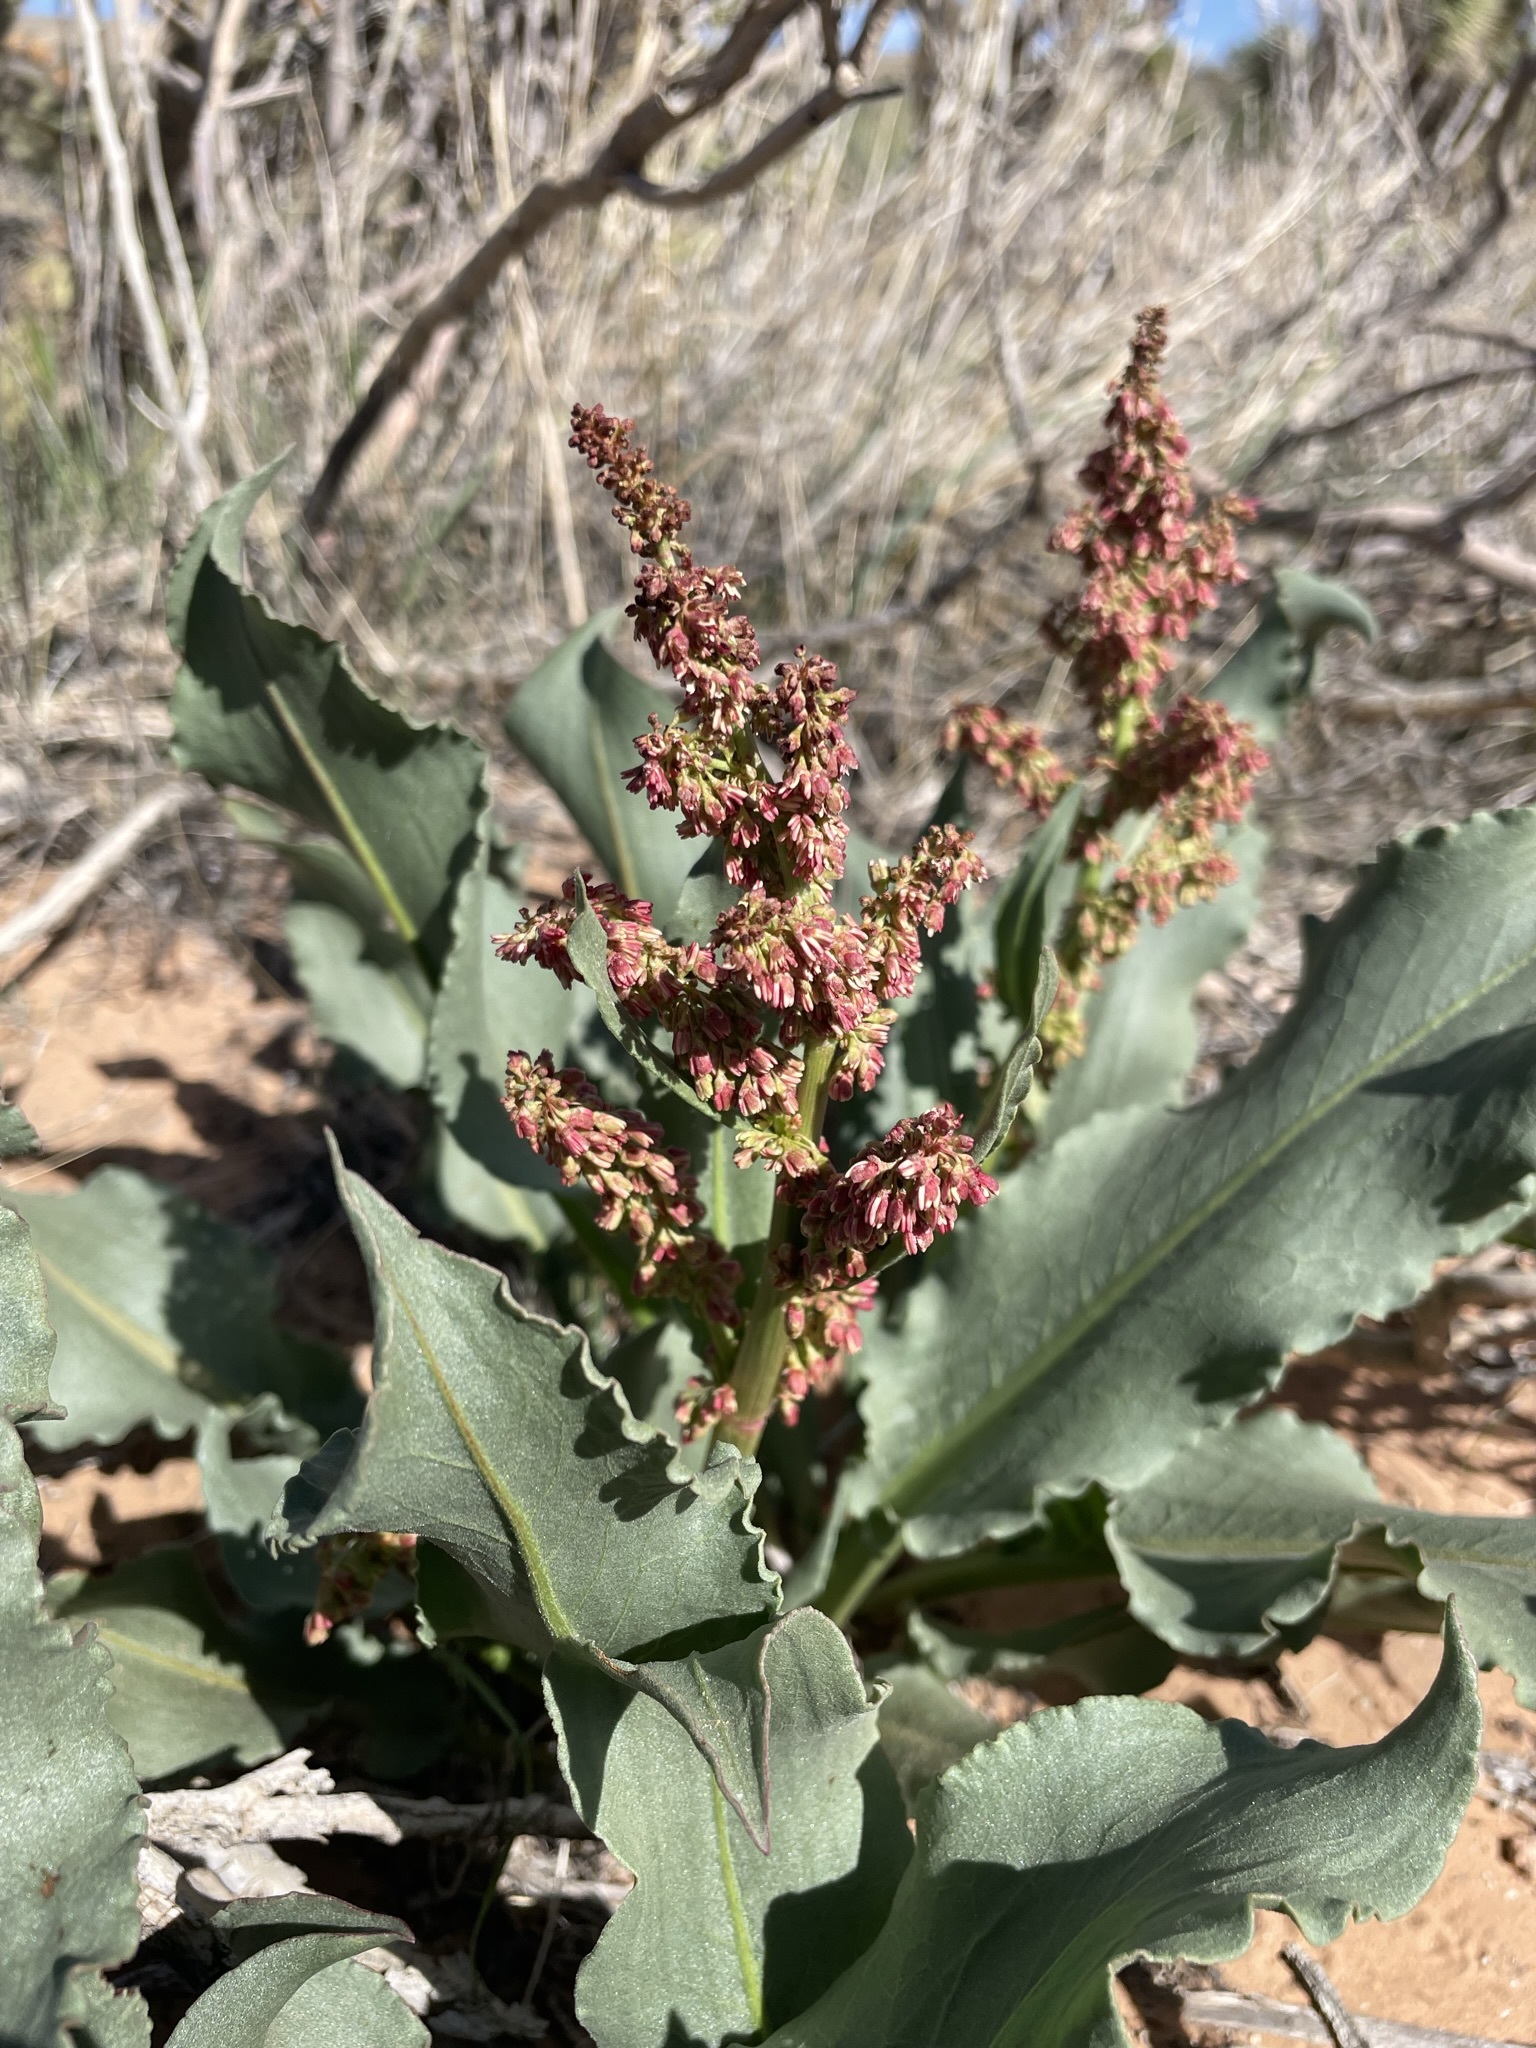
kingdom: Plantae
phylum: Tracheophyta
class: Magnoliopsida
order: Caryophyllales
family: Polygonaceae
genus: Rumex
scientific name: Rumex hymenosepalus
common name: Ganagra
